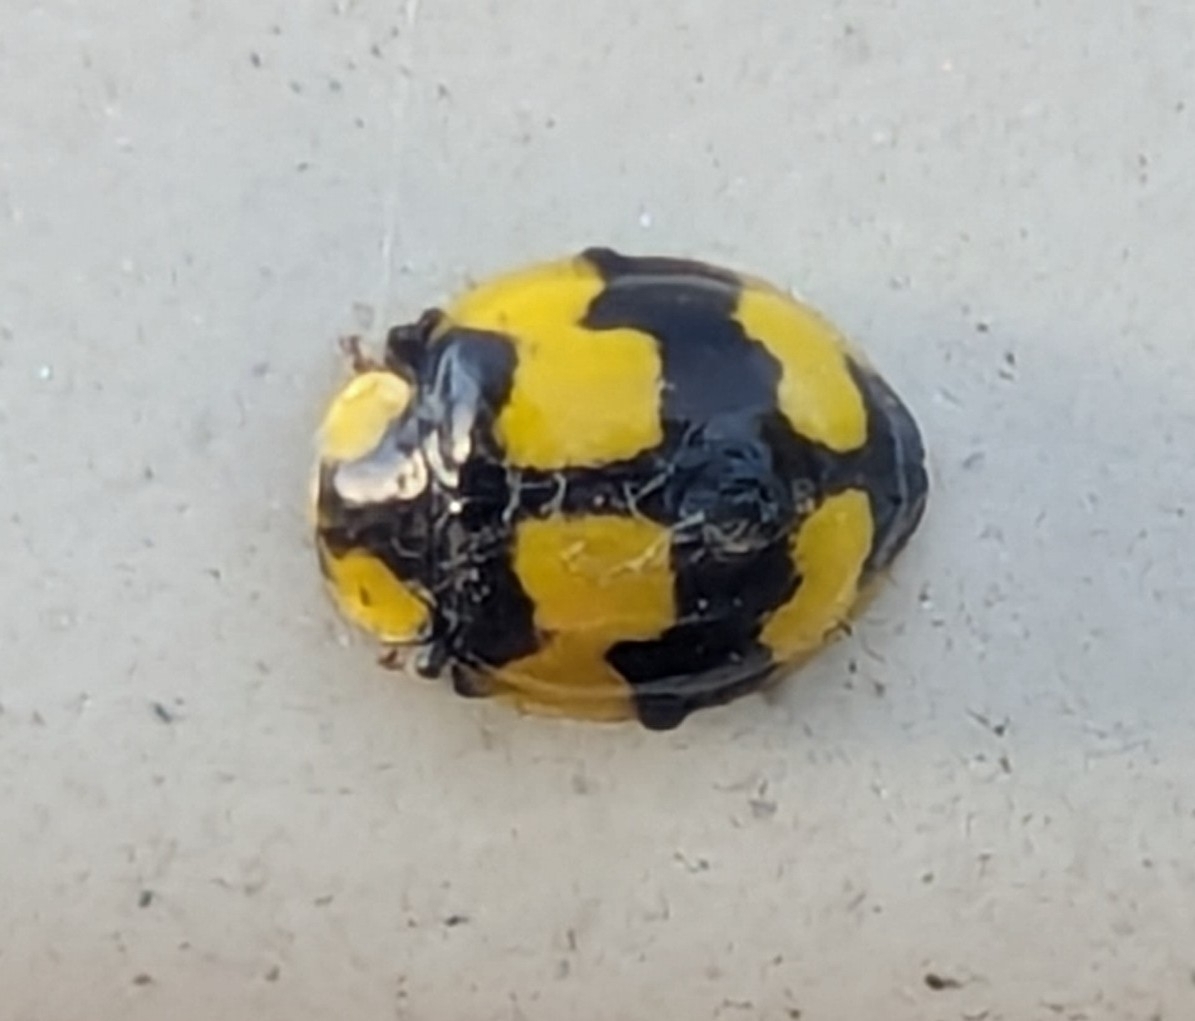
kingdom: Animalia
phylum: Arthropoda
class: Insecta
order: Coleoptera
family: Coccinellidae
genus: Illeis
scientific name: Illeis galbula
